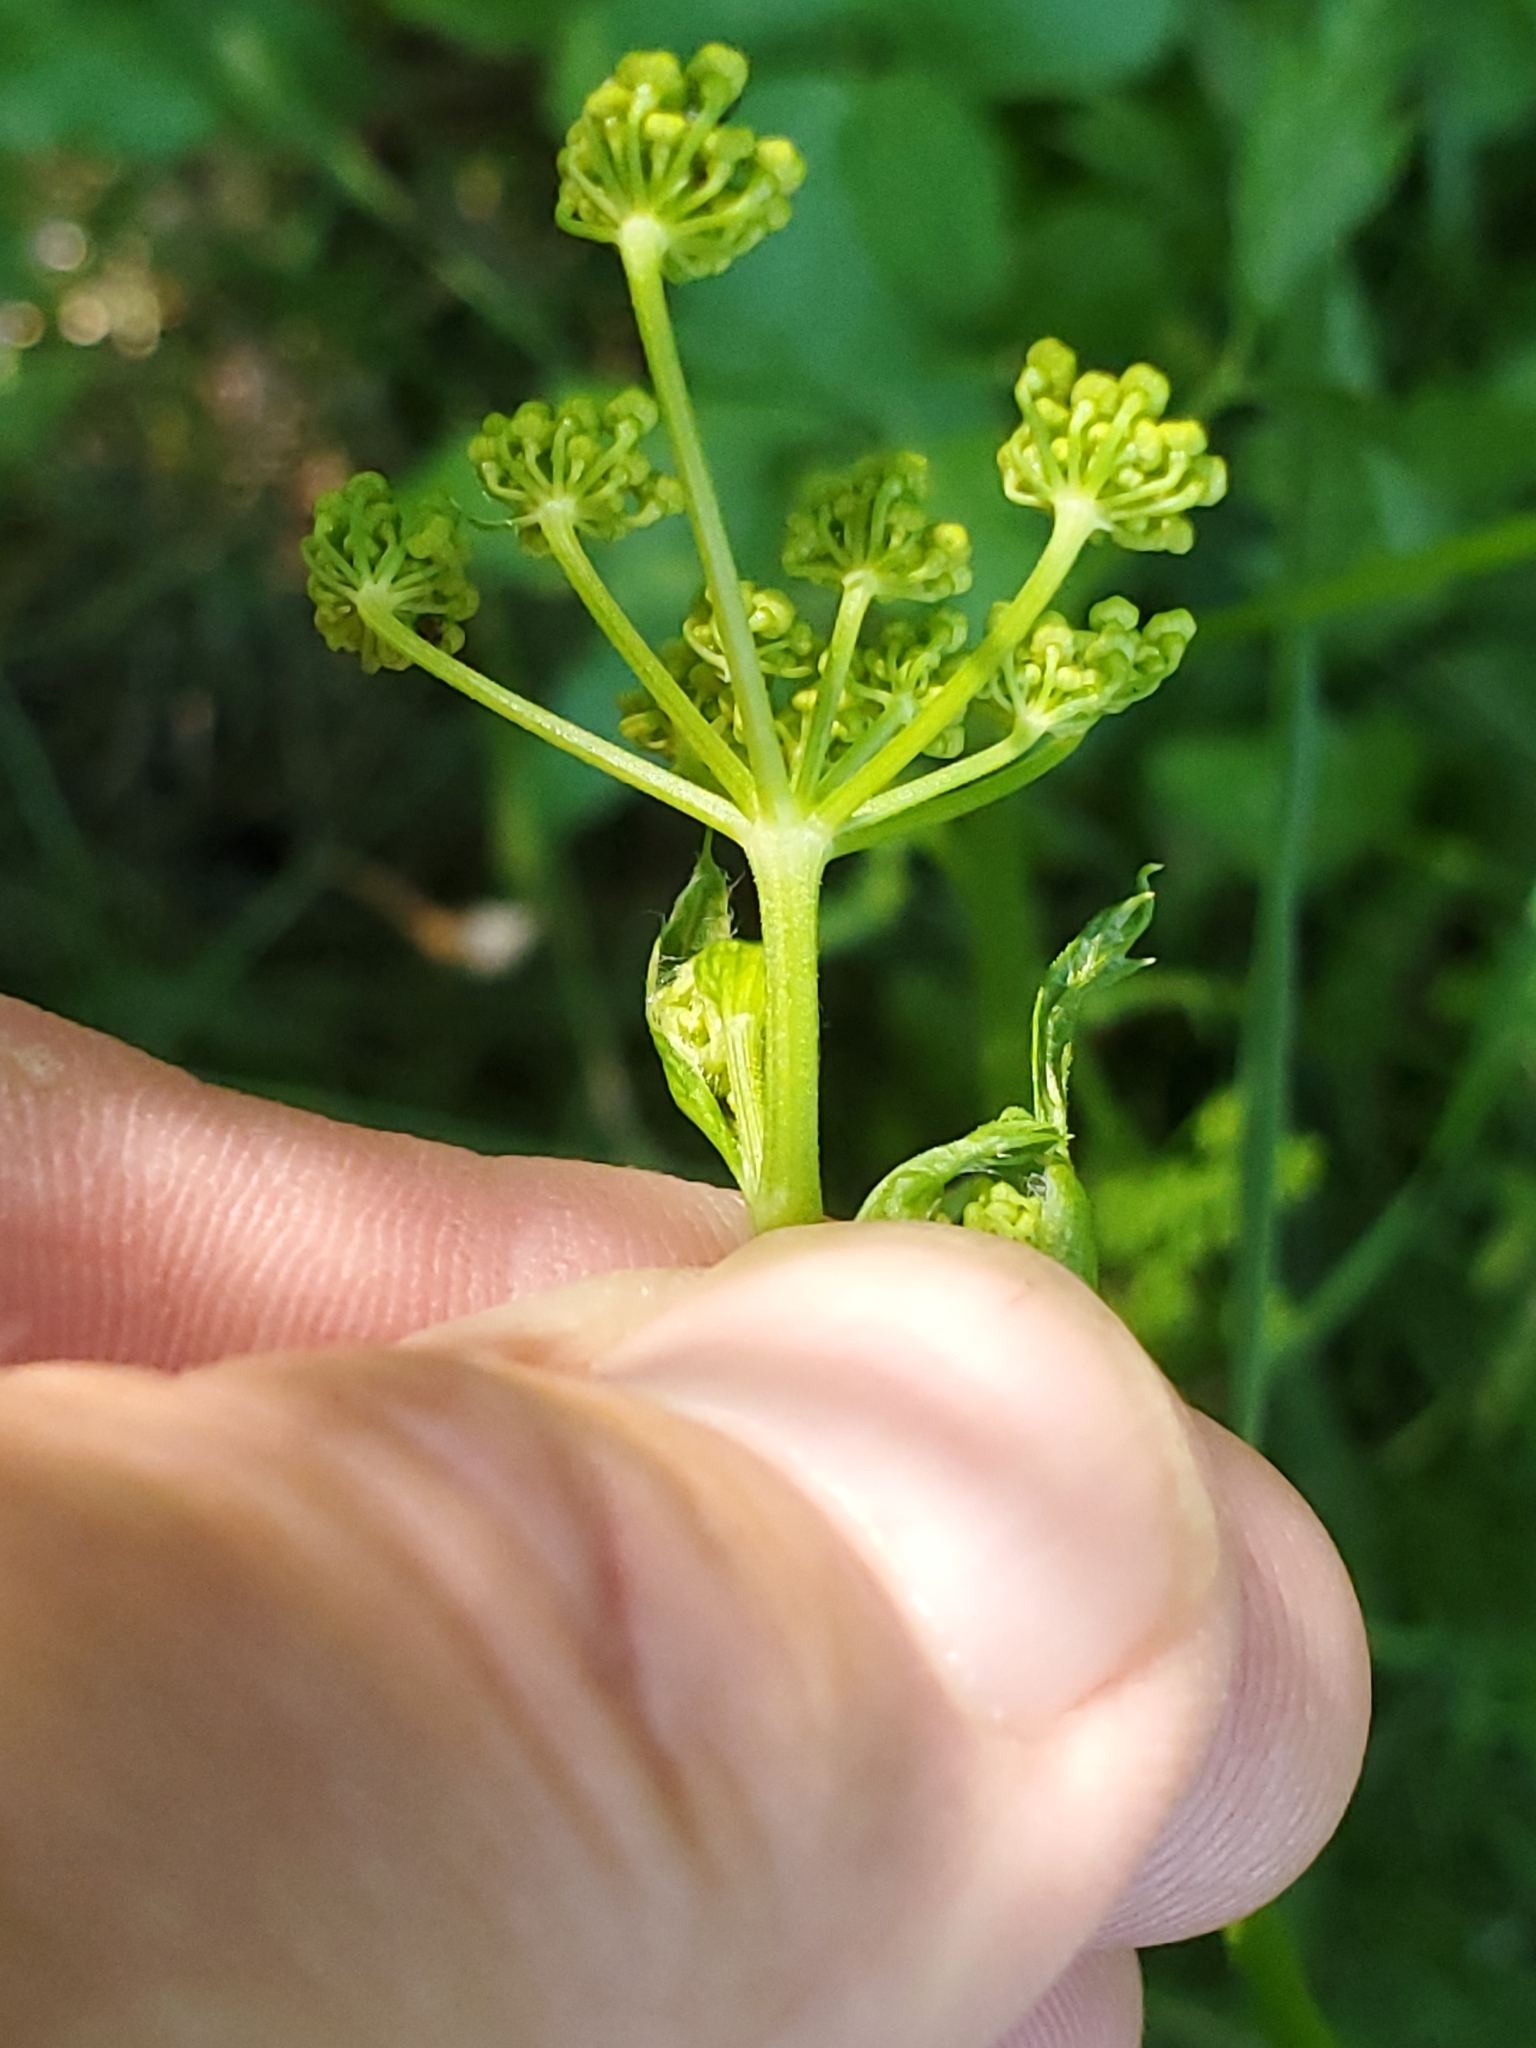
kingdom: Plantae
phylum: Tracheophyta
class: Magnoliopsida
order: Apiales
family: Apiaceae
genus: Pastinaca
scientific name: Pastinaca sativa
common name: Wild parsnip
